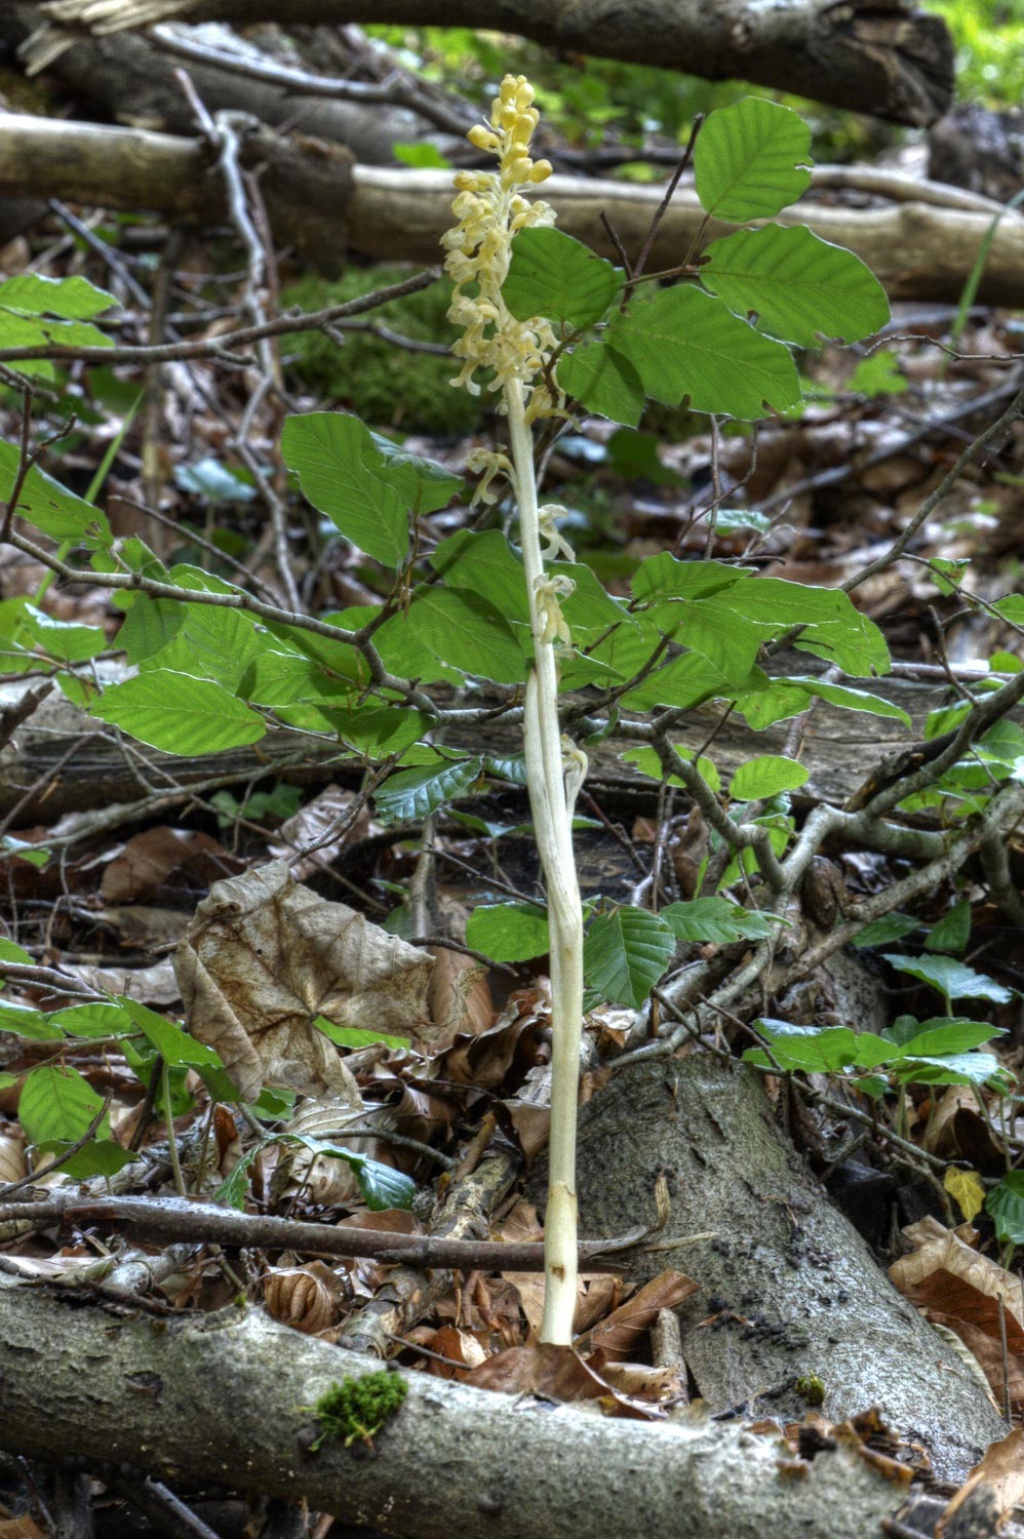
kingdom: Plantae
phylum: Tracheophyta
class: Liliopsida
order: Asparagales
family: Orchidaceae
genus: Neottia
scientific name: Neottia nidus-avis
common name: Bird's-nest orchid
